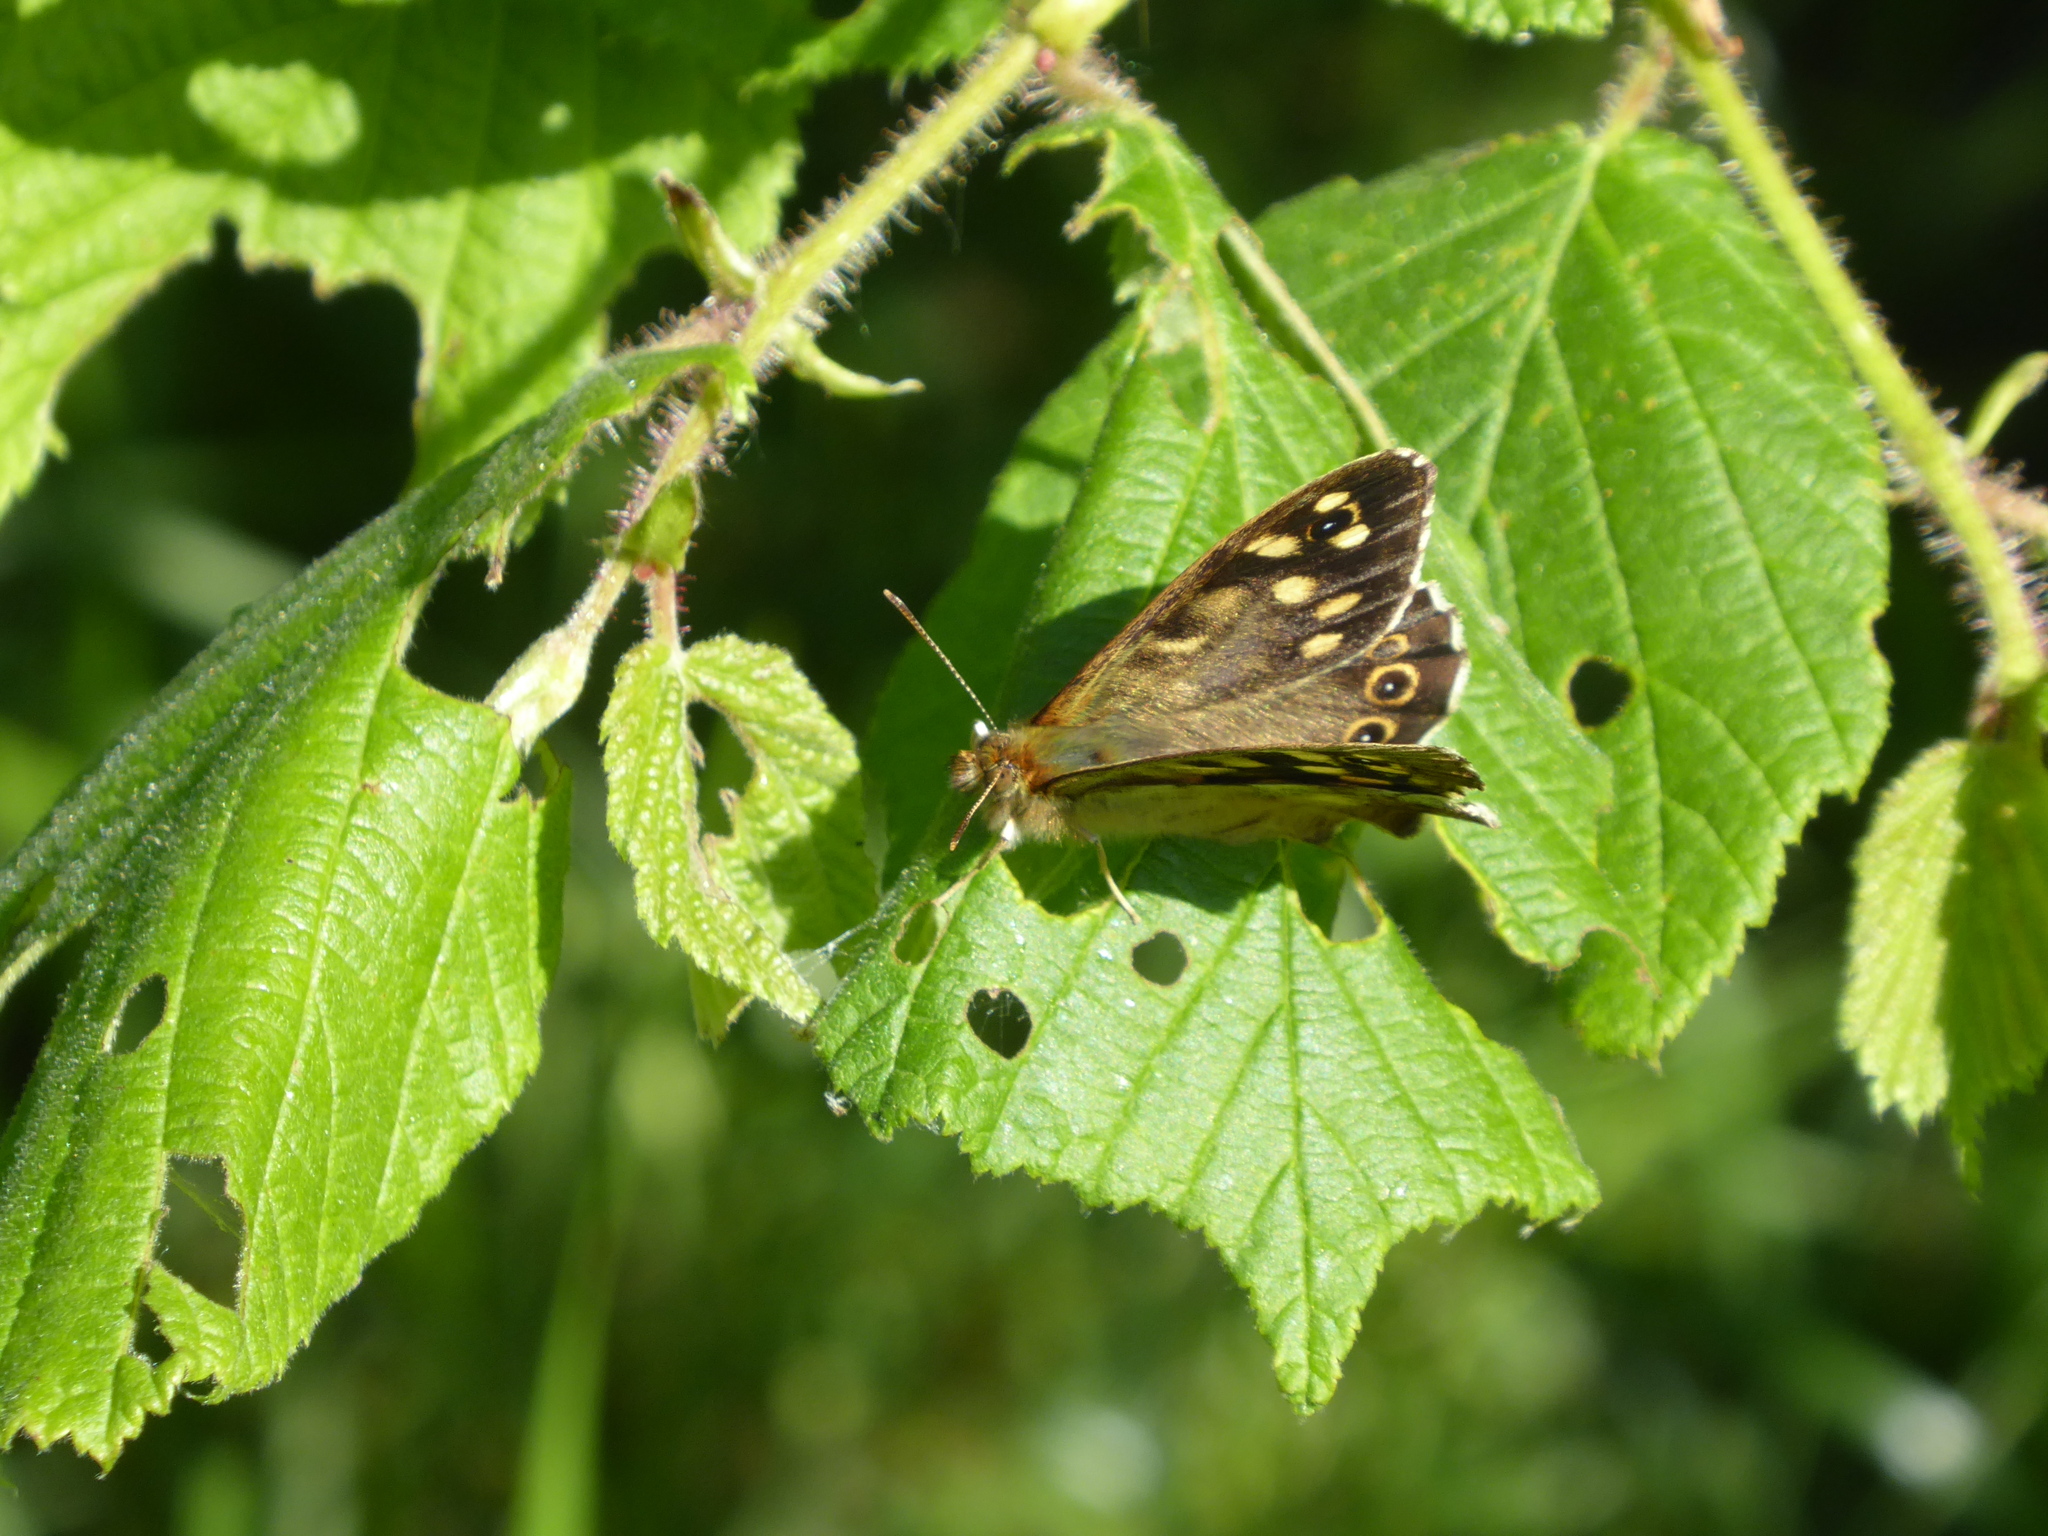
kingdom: Animalia
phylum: Arthropoda
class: Insecta
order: Lepidoptera
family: Nymphalidae
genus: Pararge
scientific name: Pararge aegeria
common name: Speckled wood
